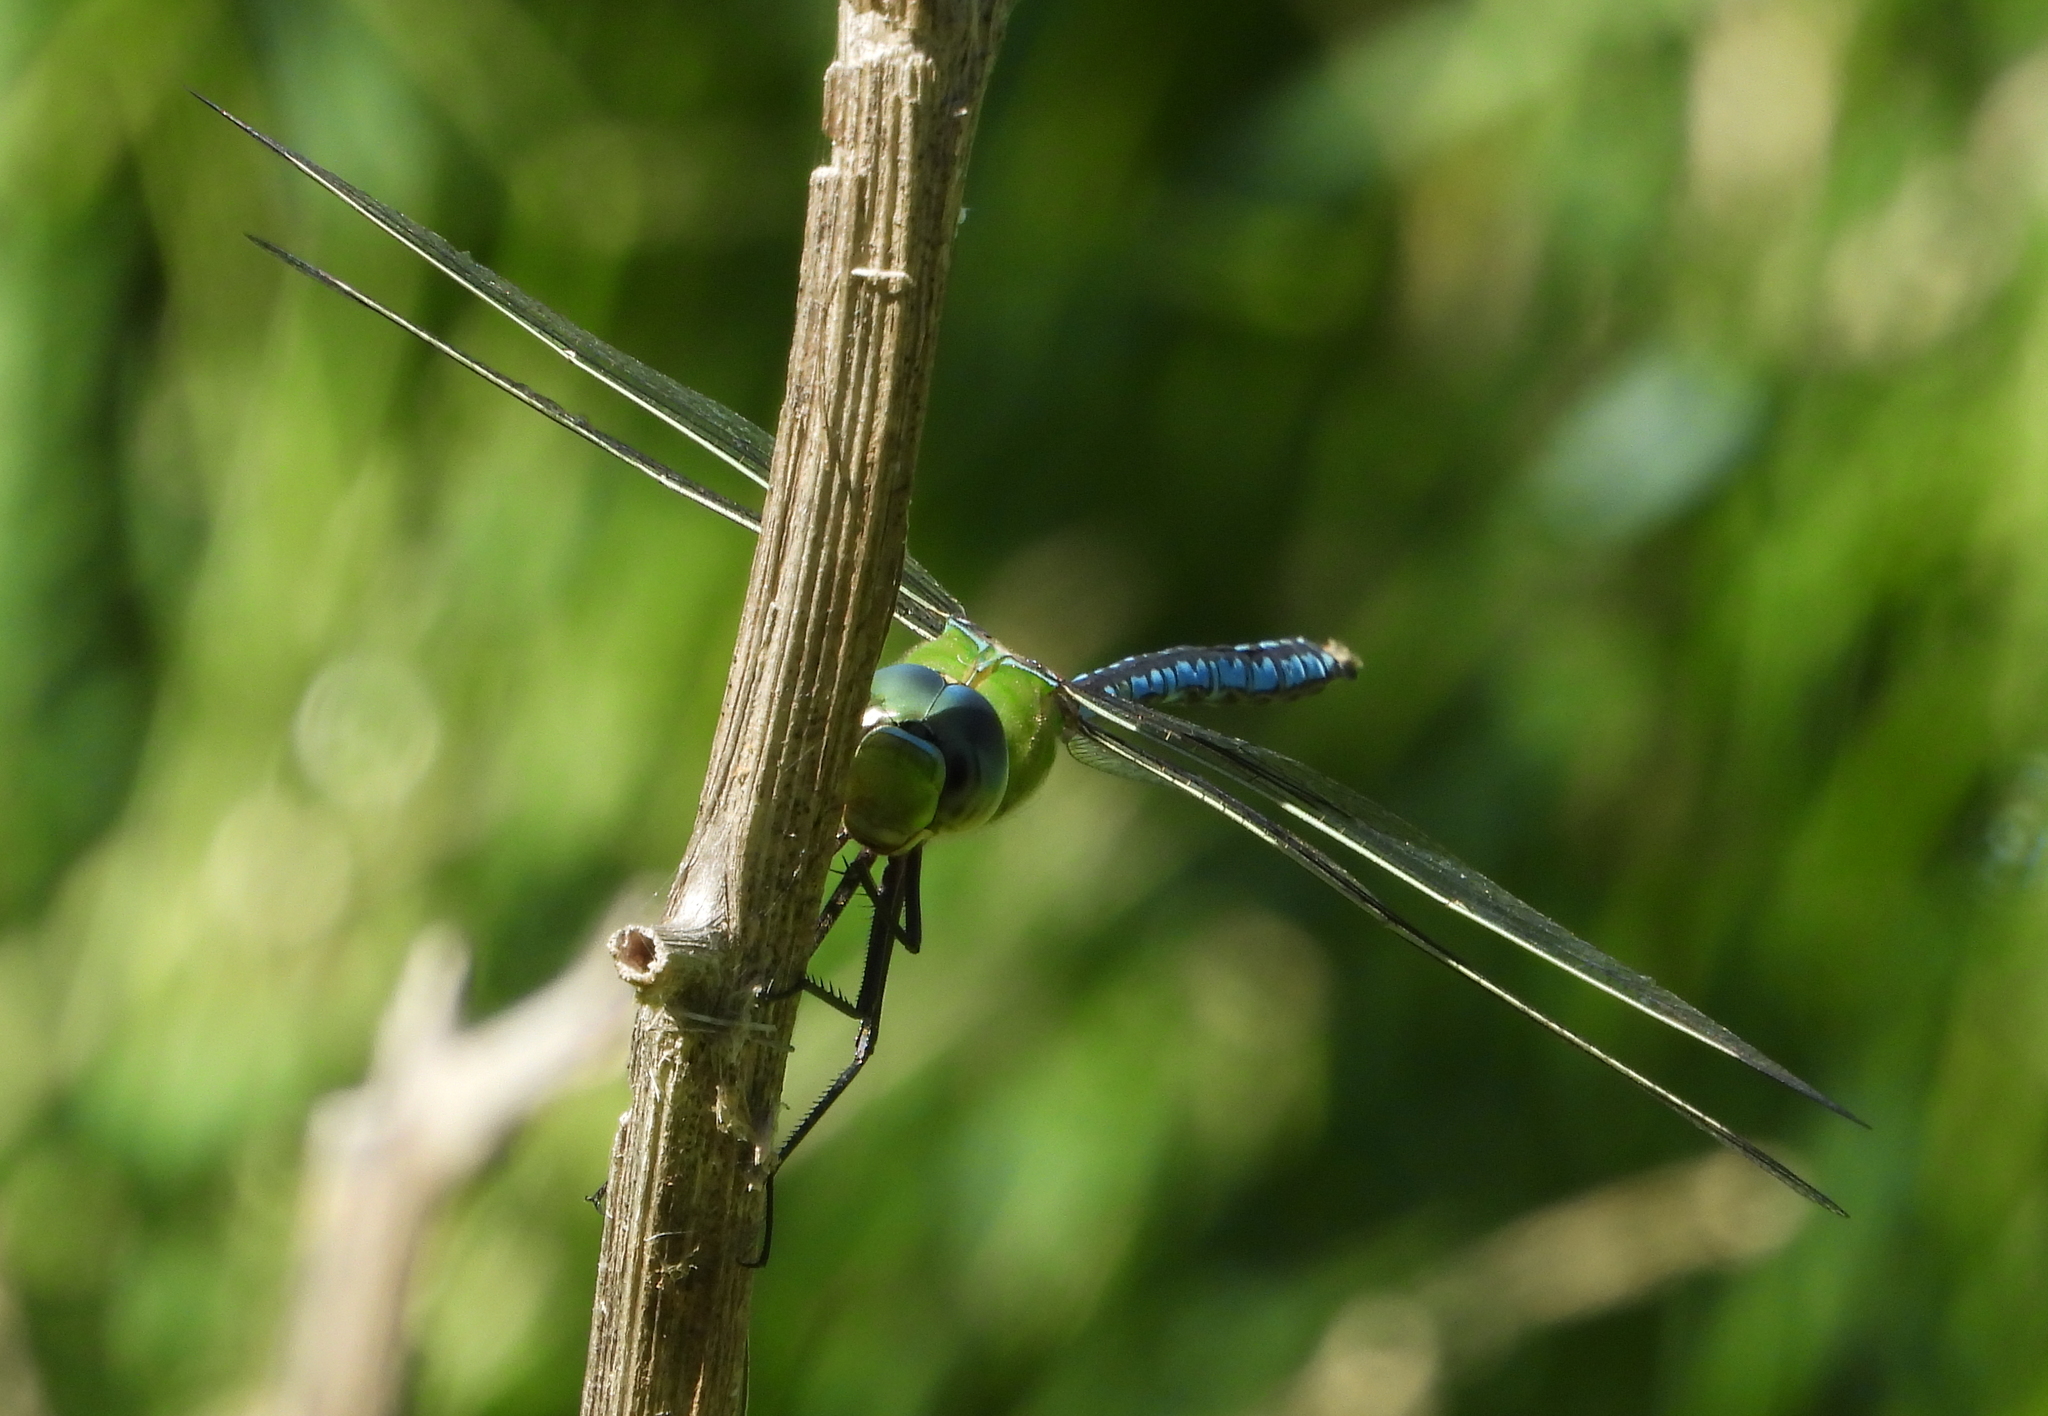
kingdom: Animalia
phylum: Arthropoda
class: Insecta
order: Odonata
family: Aeshnidae
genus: Anax
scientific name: Anax imperator
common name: Emperor dragonfly
